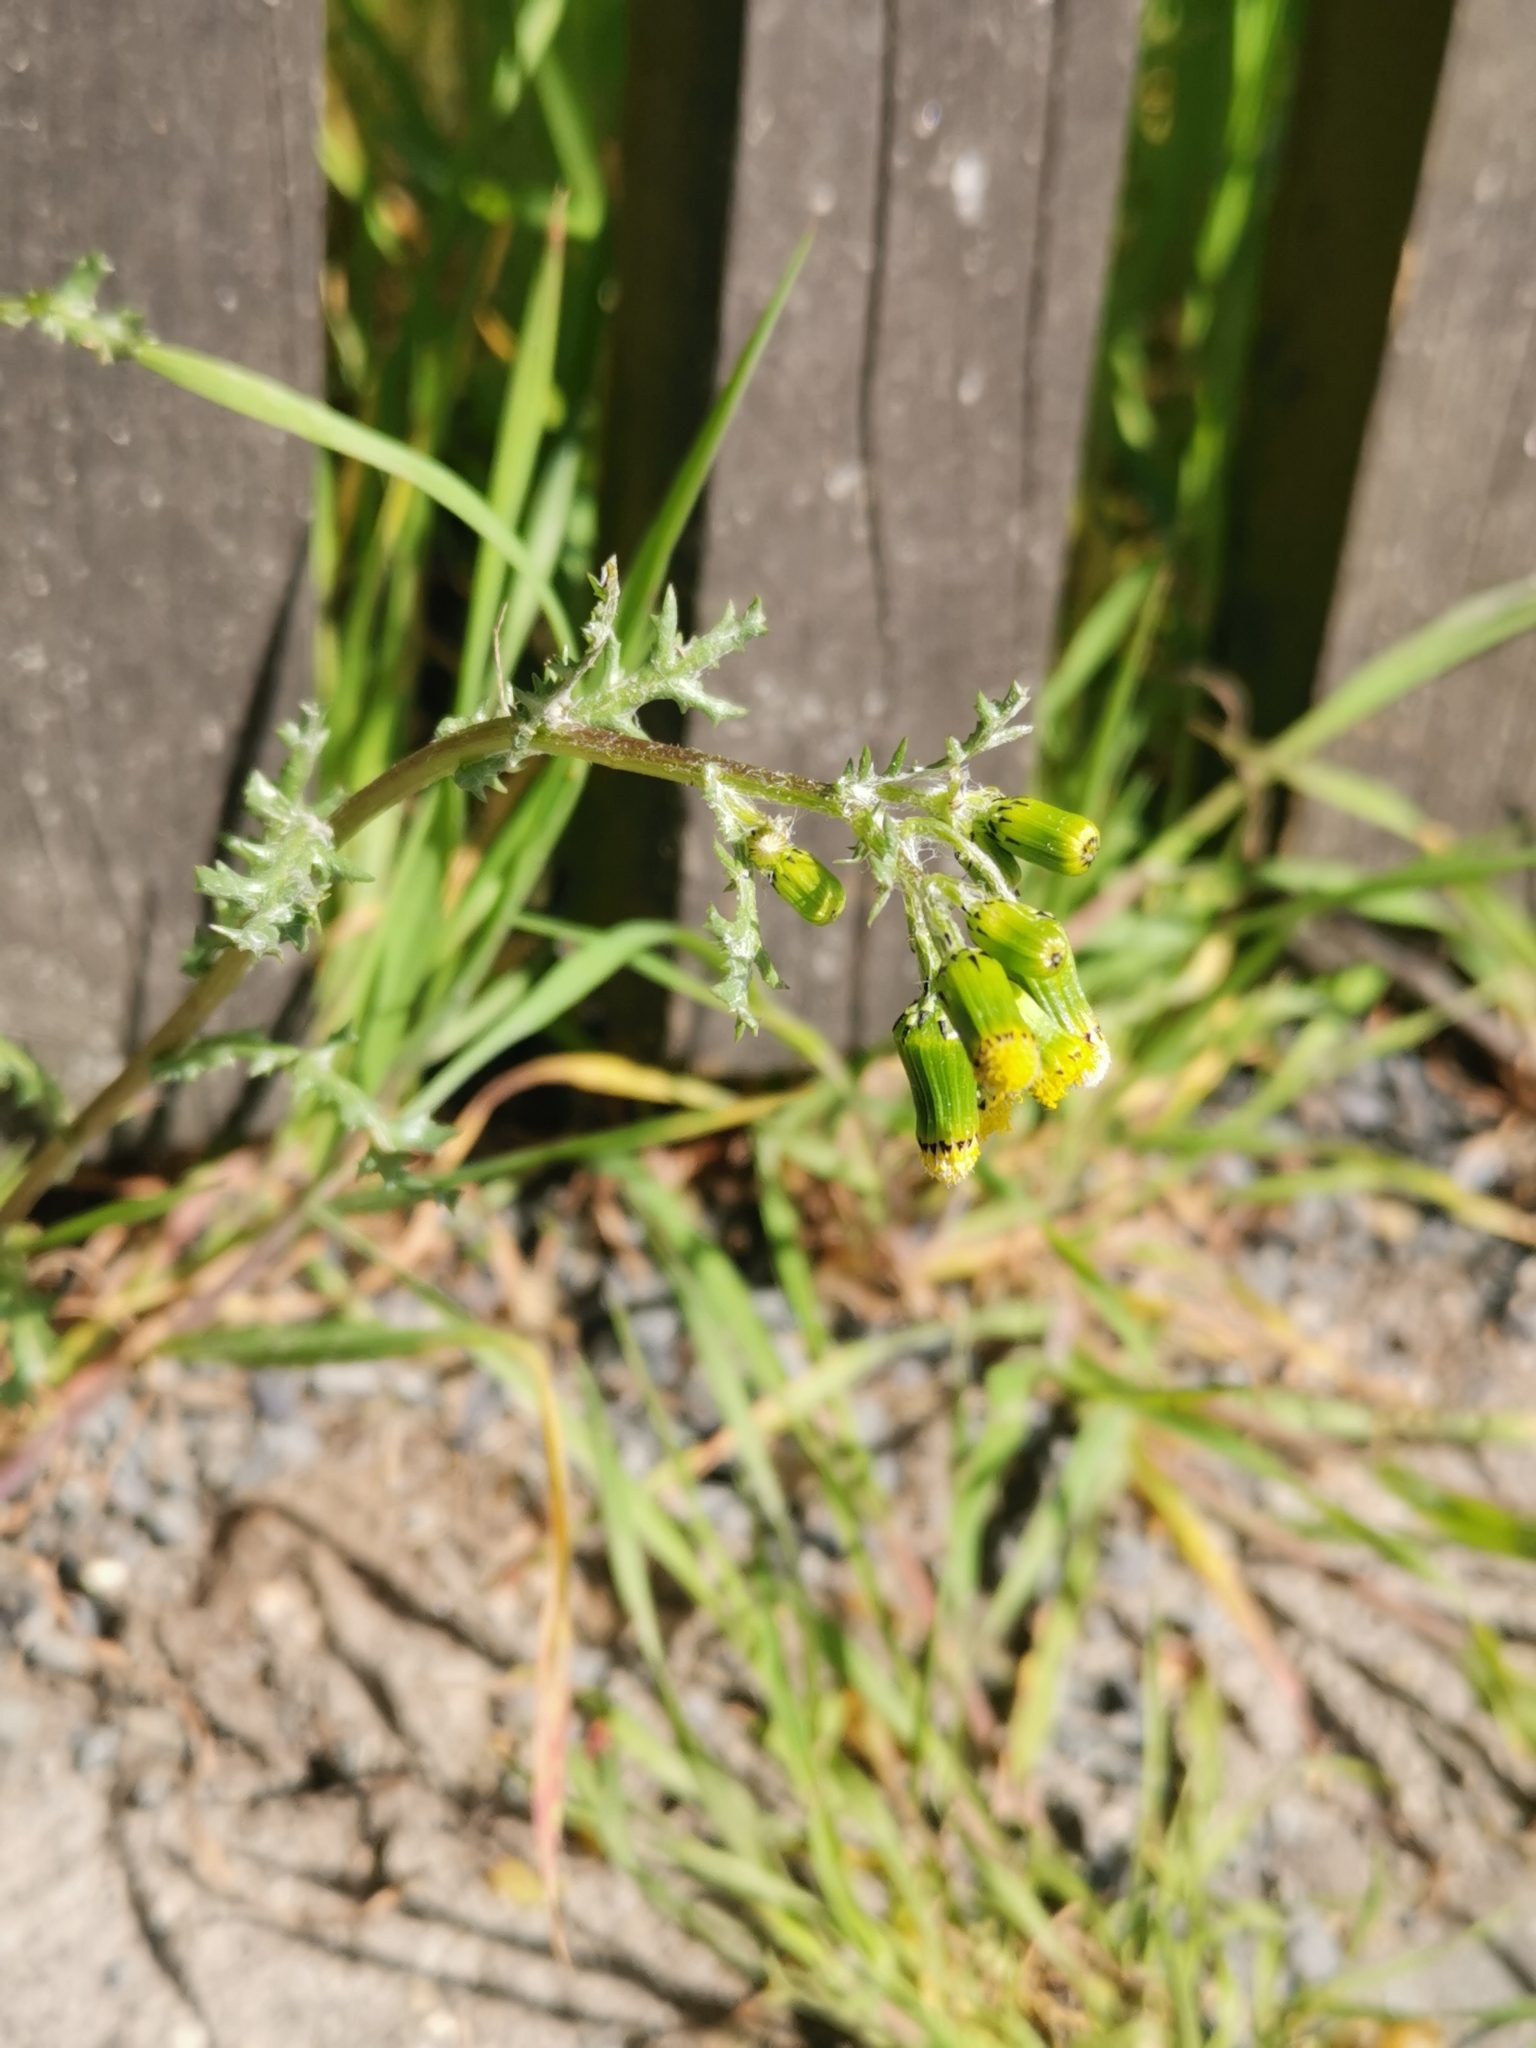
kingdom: Plantae
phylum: Tracheophyta
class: Magnoliopsida
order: Asterales
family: Asteraceae
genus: Senecio
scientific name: Senecio vulgaris
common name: Old-man-in-the-spring
